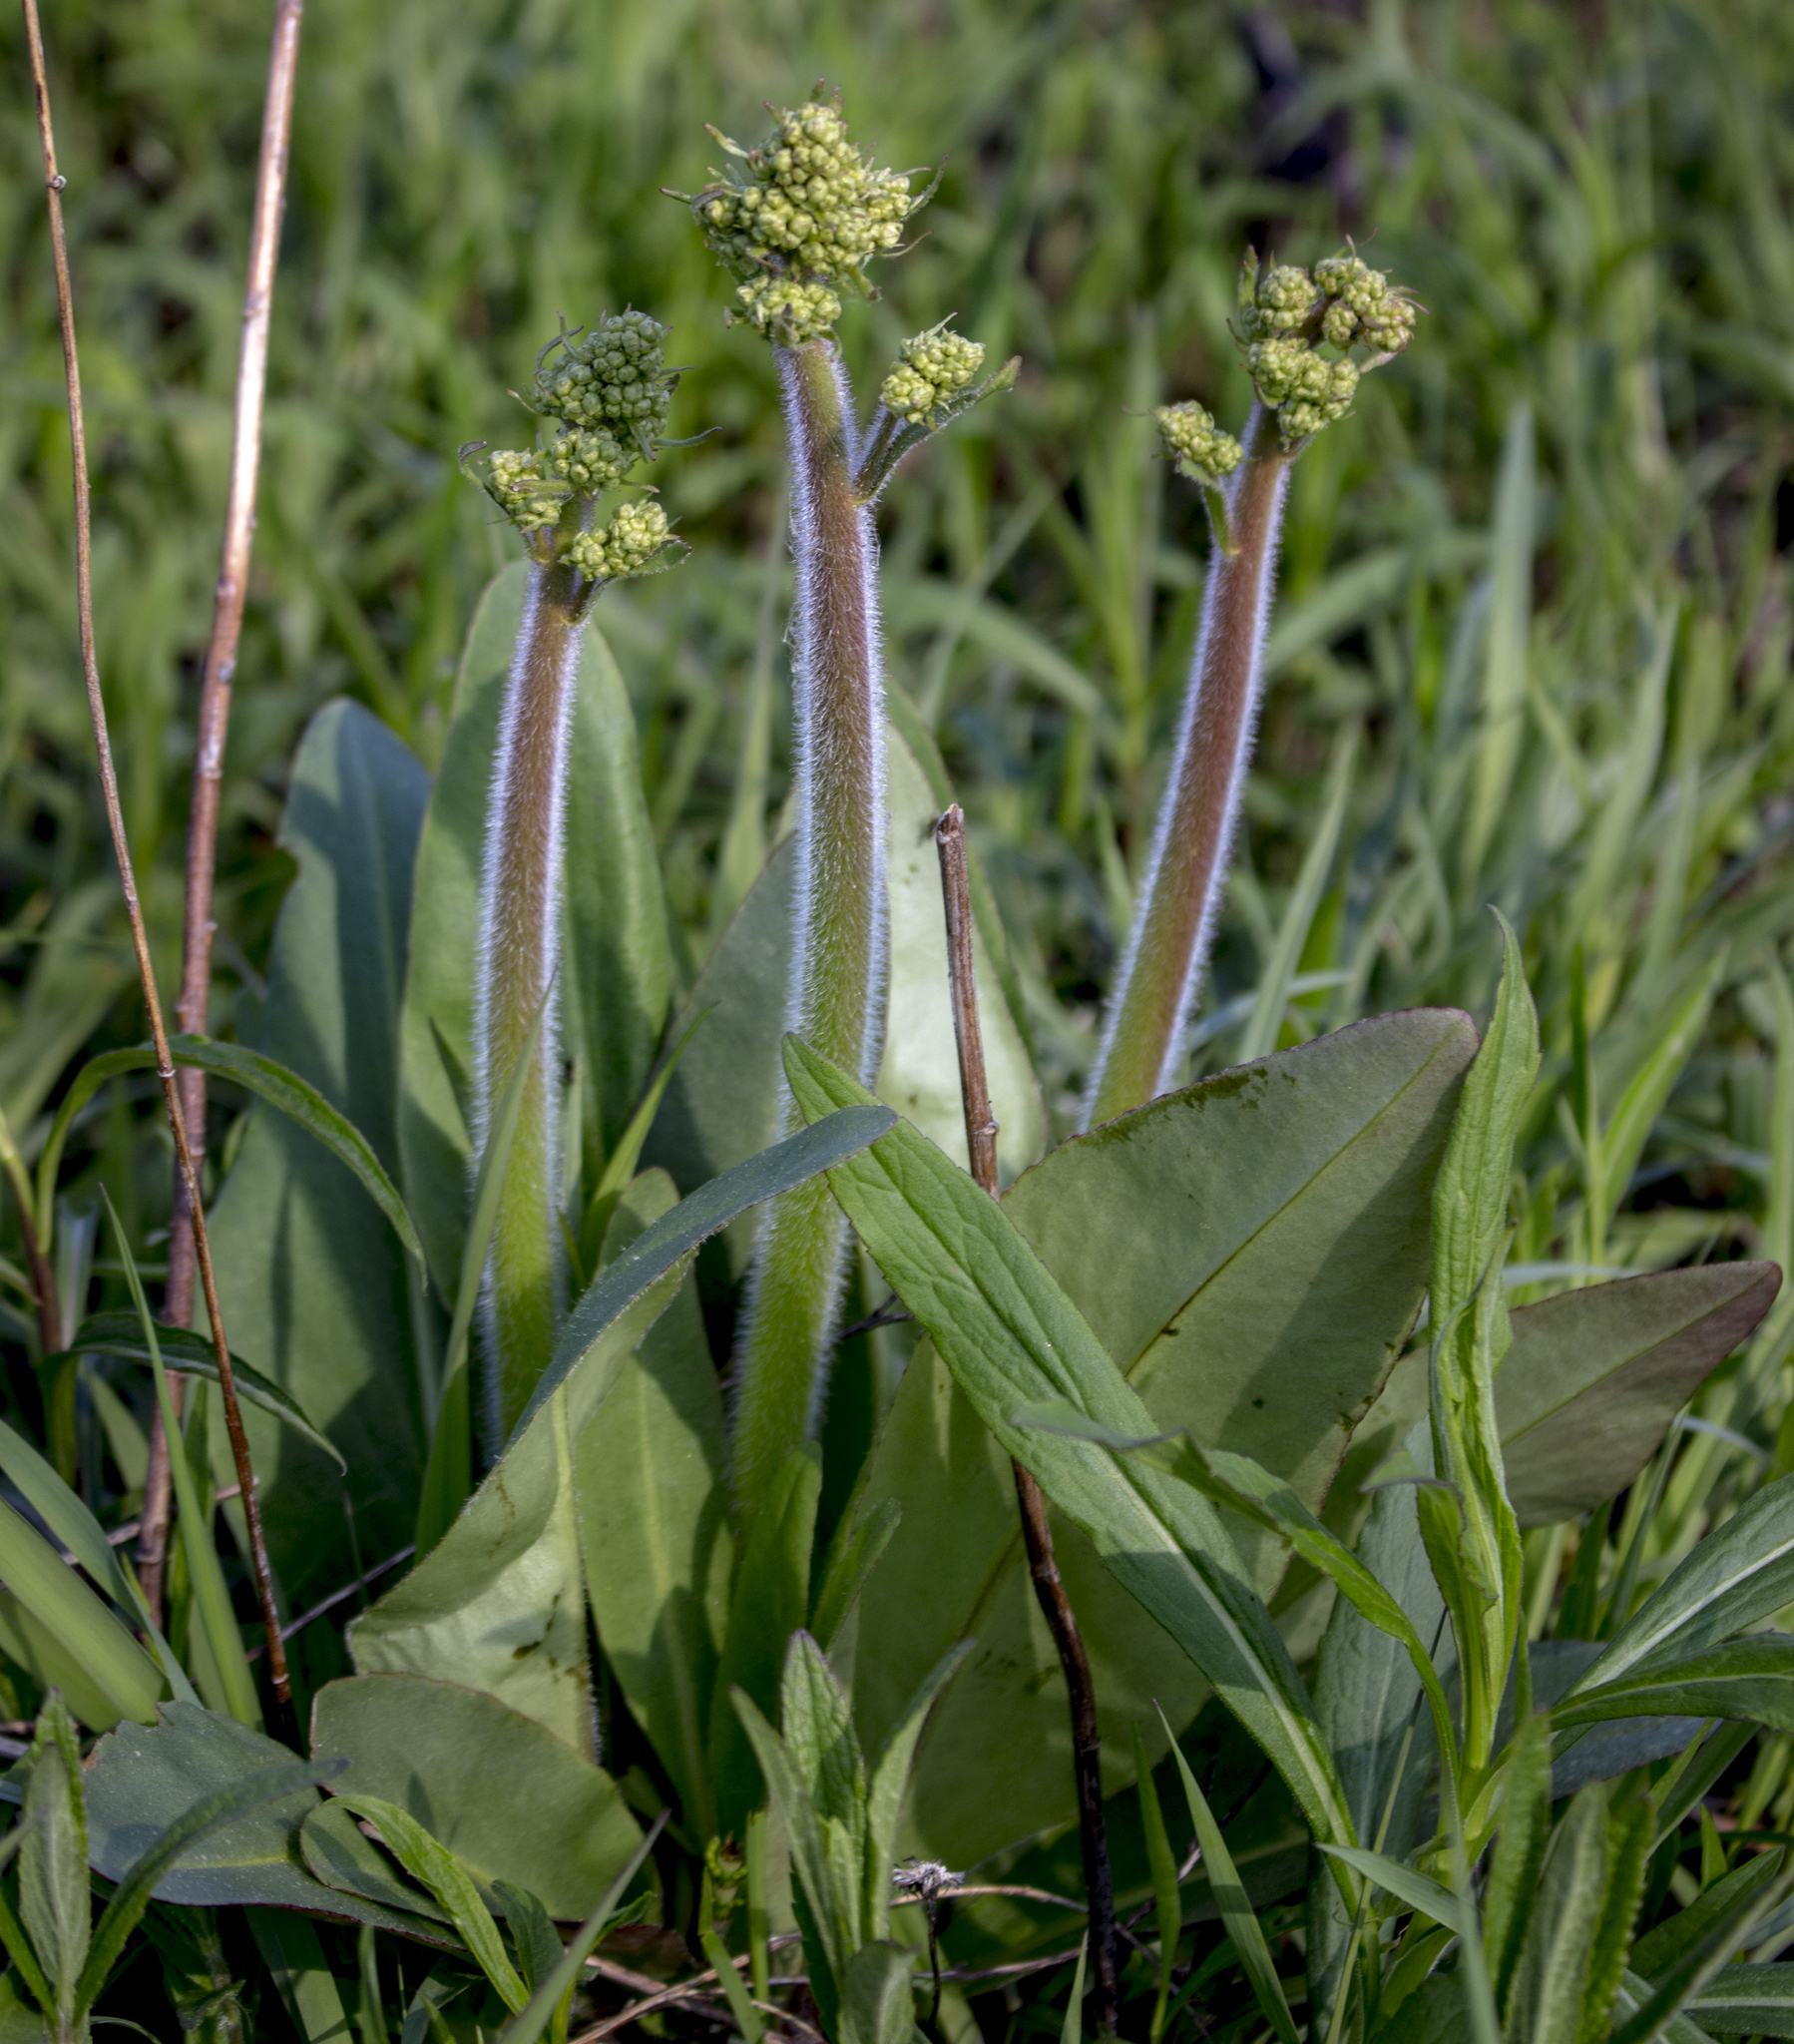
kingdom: Plantae
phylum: Tracheophyta
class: Magnoliopsida
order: Saxifragales
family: Saxifragaceae
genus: Micranthes
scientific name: Micranthes pensylvanica
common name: Marsh saxifrage
